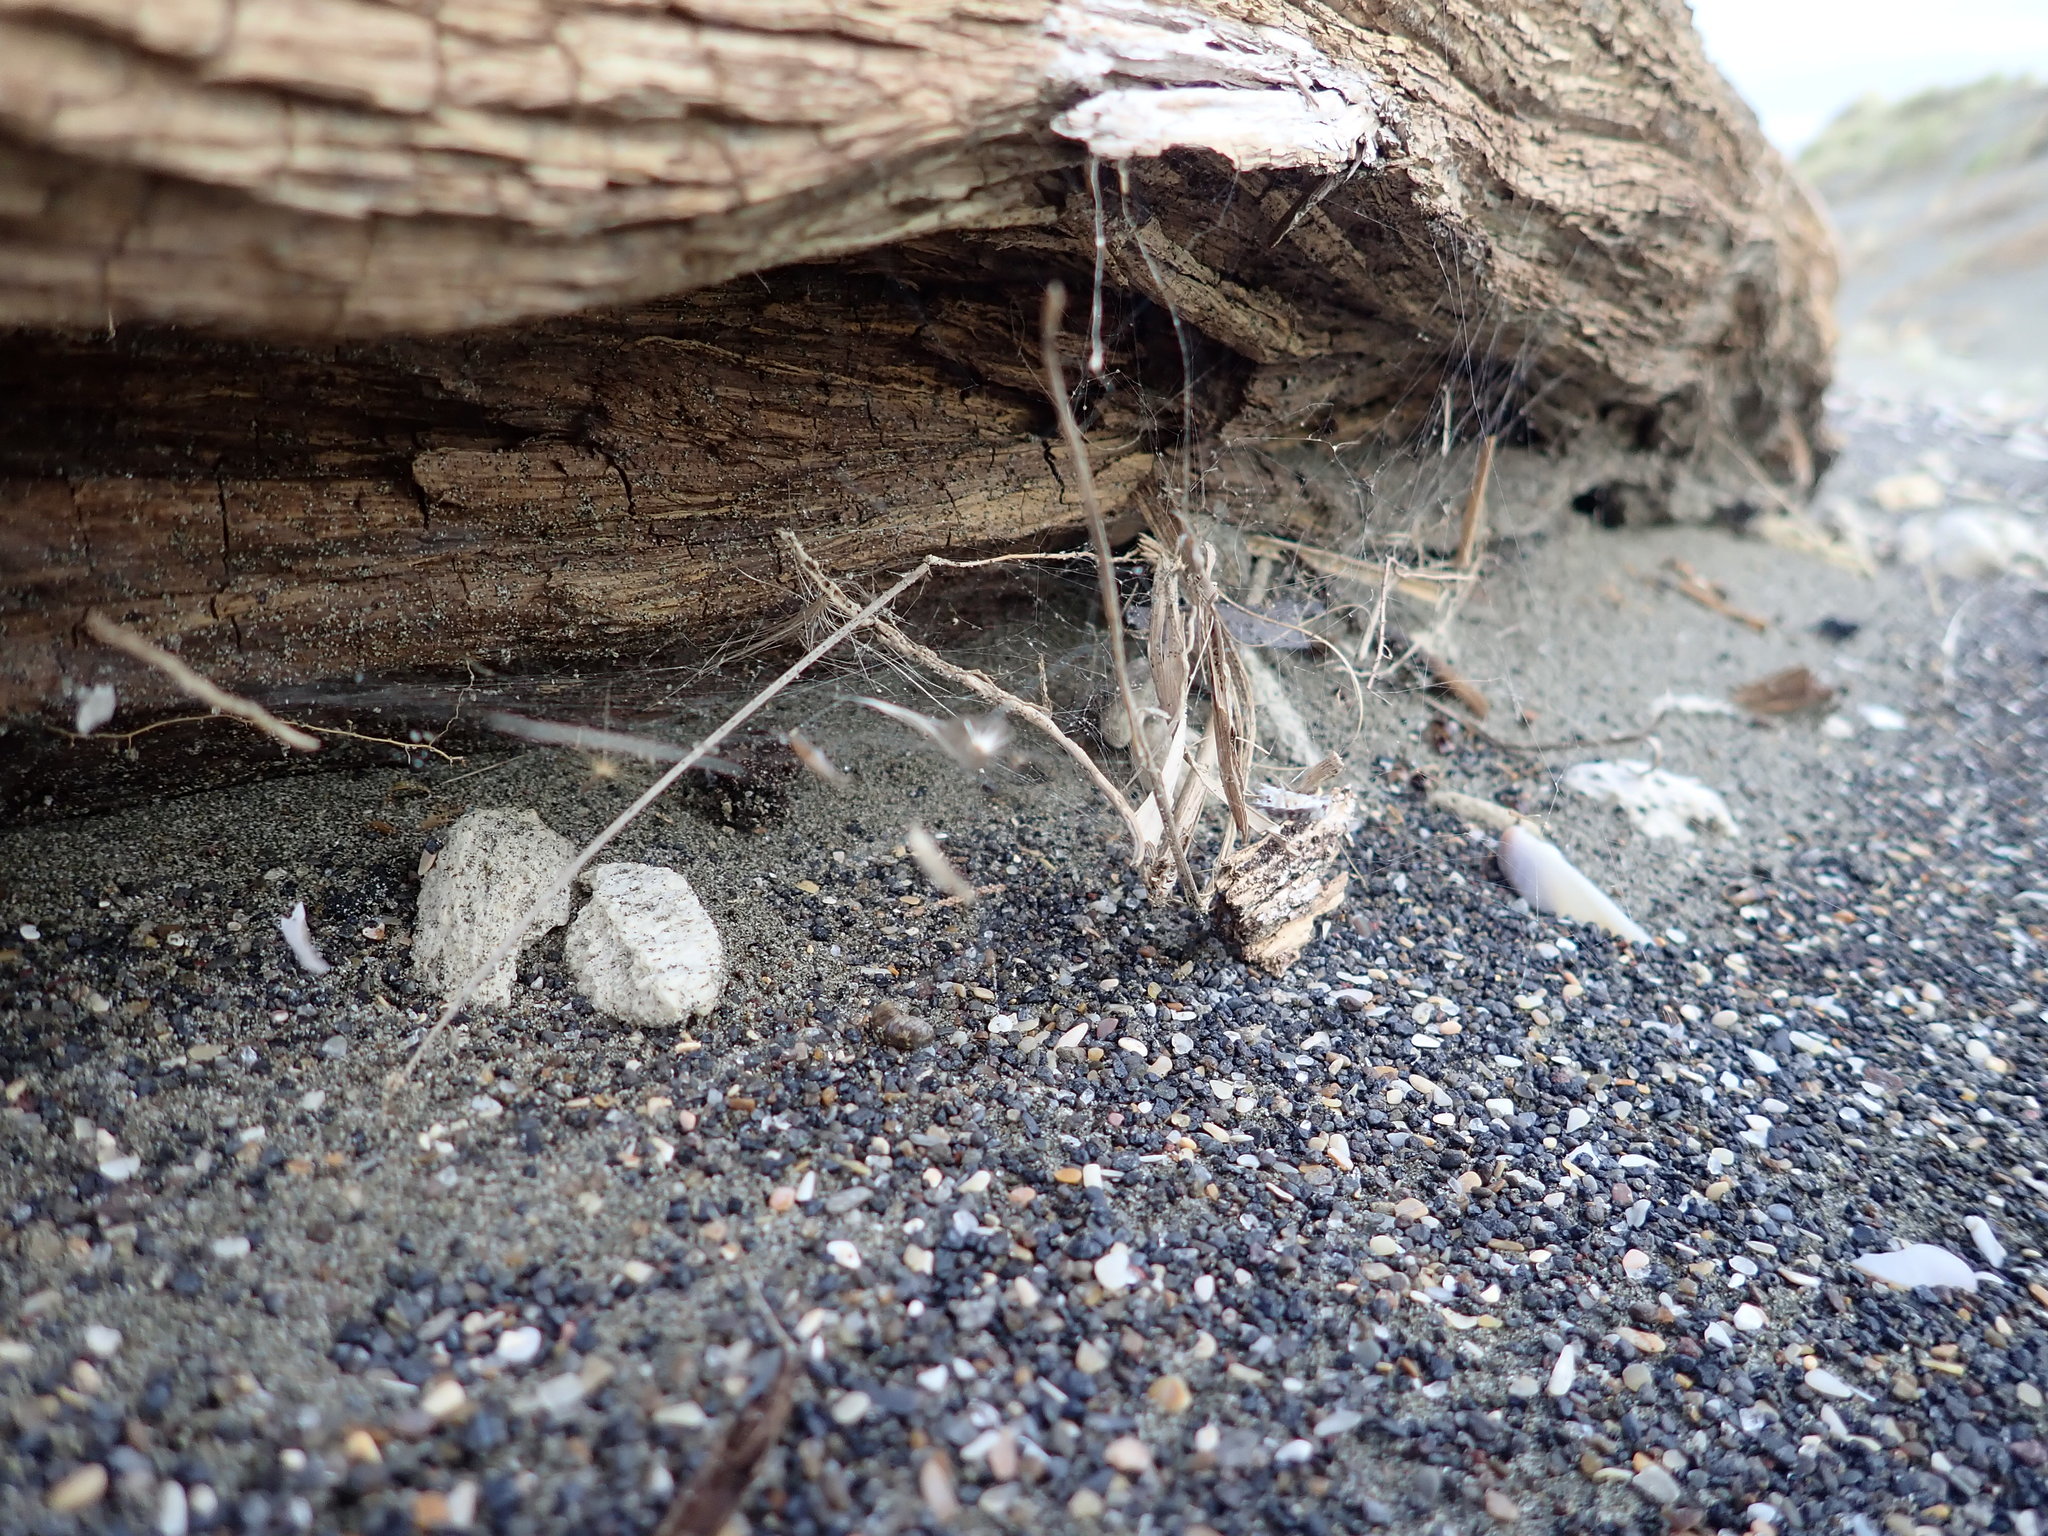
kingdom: Animalia
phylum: Arthropoda
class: Insecta
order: Dermaptera
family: Anisolabididae
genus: Anisolabis
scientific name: Anisolabis littorea
